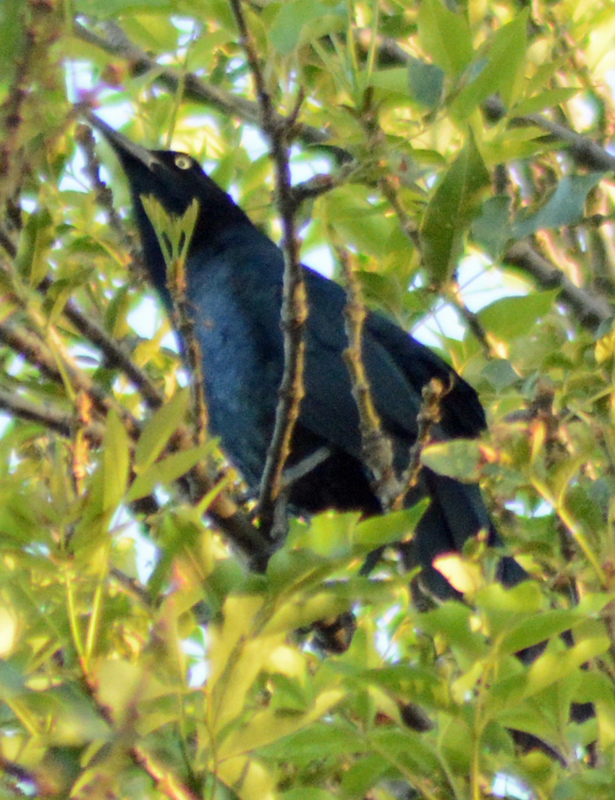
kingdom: Animalia
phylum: Chordata
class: Aves
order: Passeriformes
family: Icteridae
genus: Quiscalus
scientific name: Quiscalus mexicanus
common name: Great-tailed grackle
